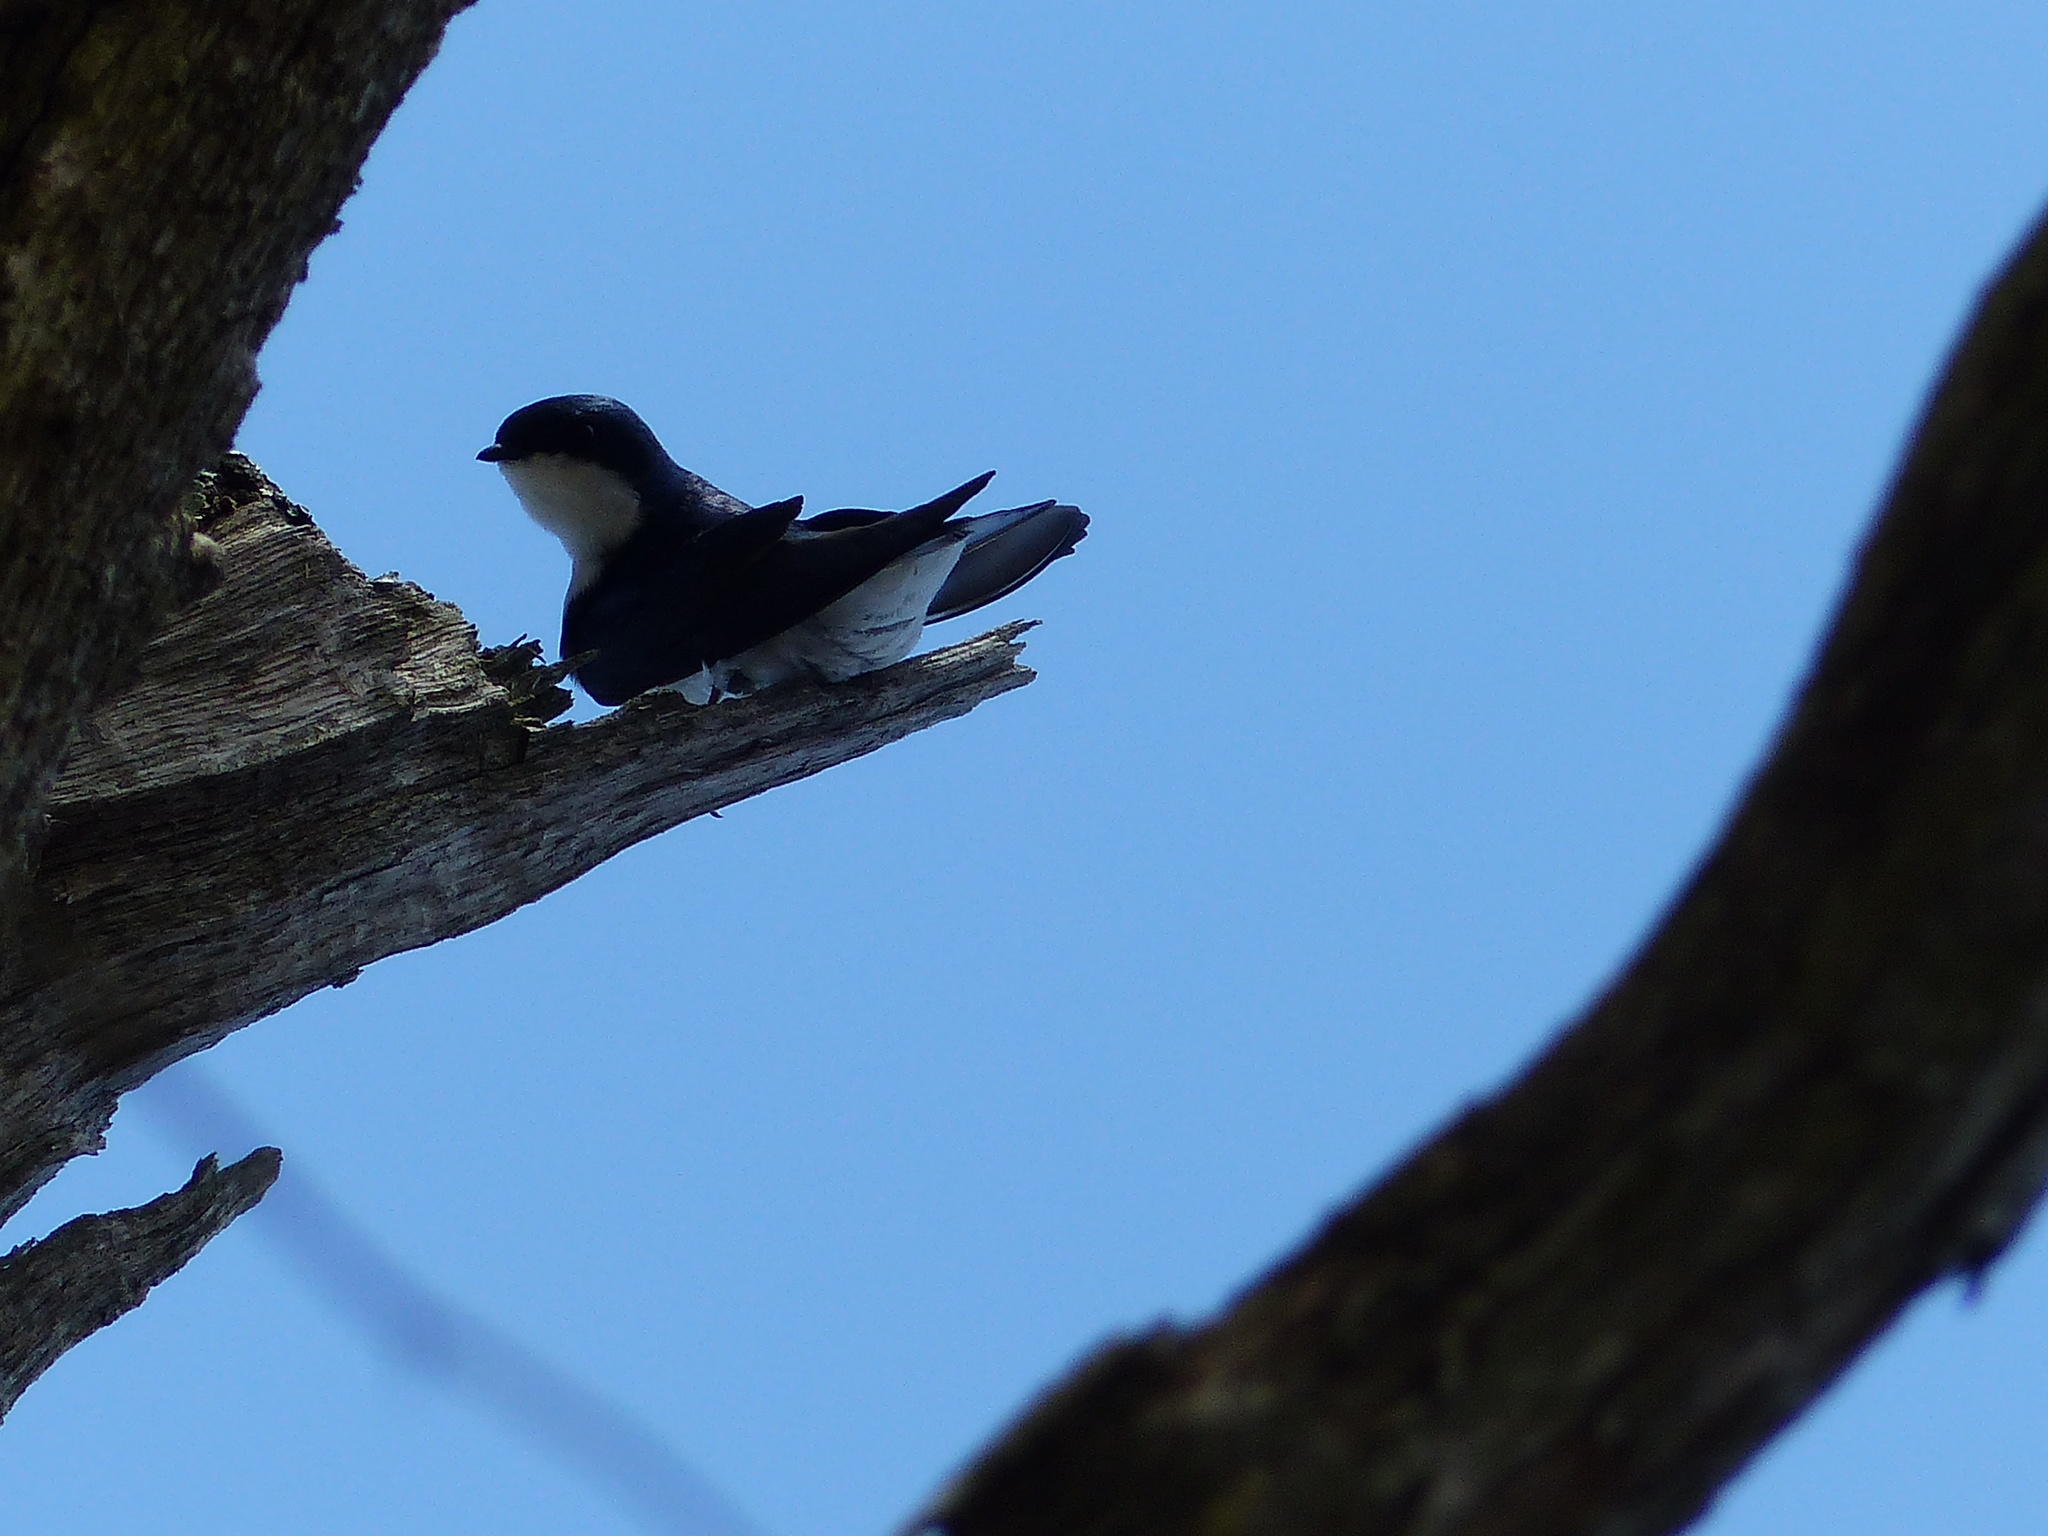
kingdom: Animalia
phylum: Chordata
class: Aves
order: Passeriformes
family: Hirundinidae
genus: Tachycineta
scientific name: Tachycineta bicolor
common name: Tree swallow
